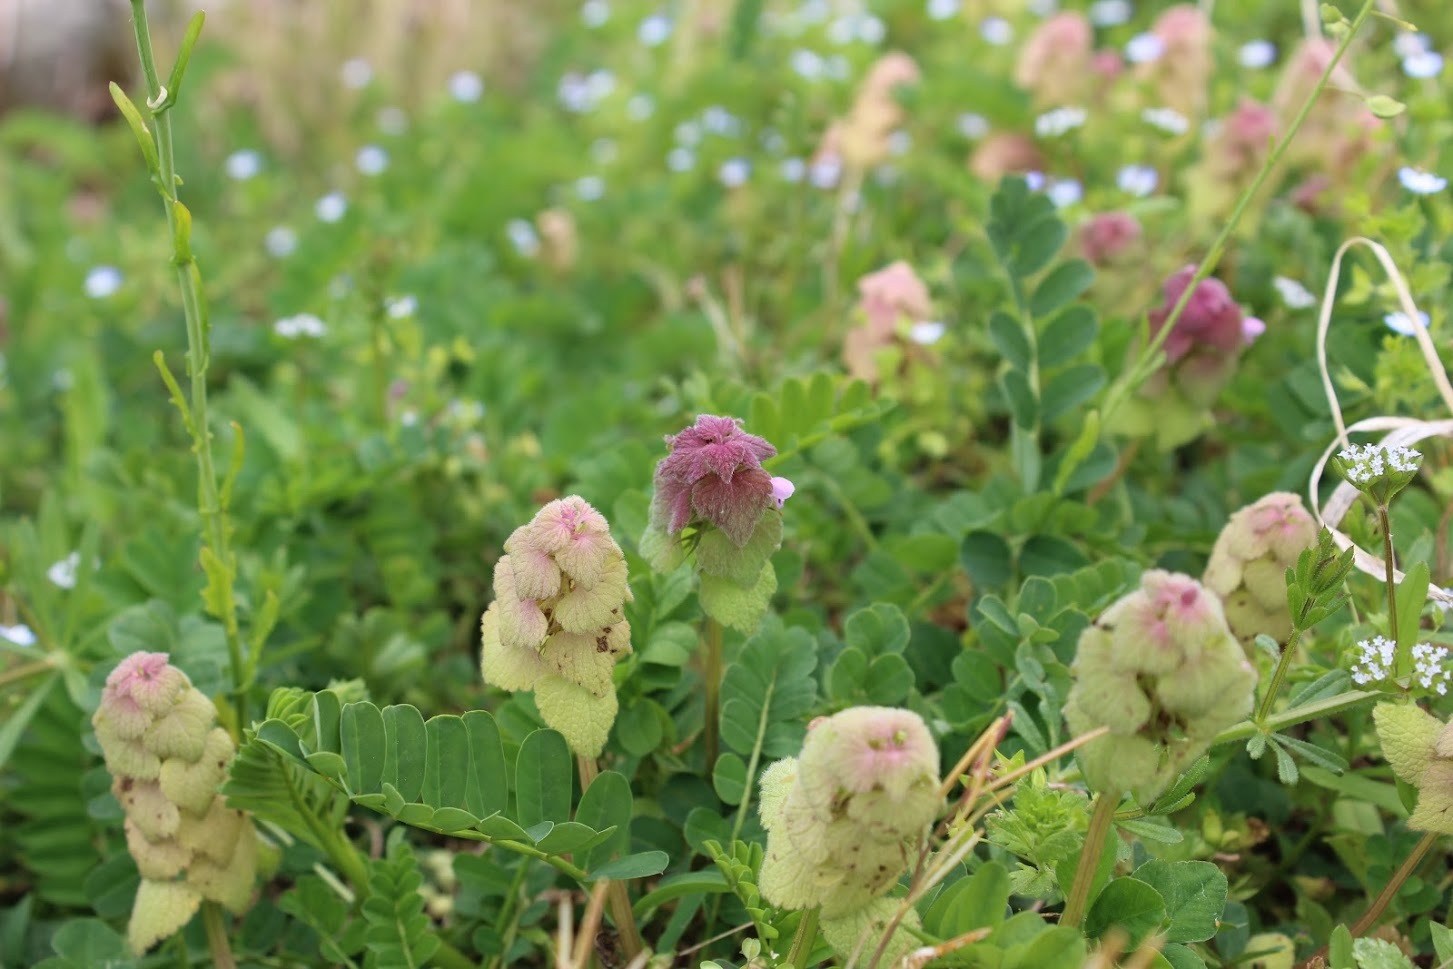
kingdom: Plantae
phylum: Tracheophyta
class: Magnoliopsida
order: Lamiales
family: Lamiaceae
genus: Lamium
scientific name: Lamium purpureum
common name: Red dead-nettle
